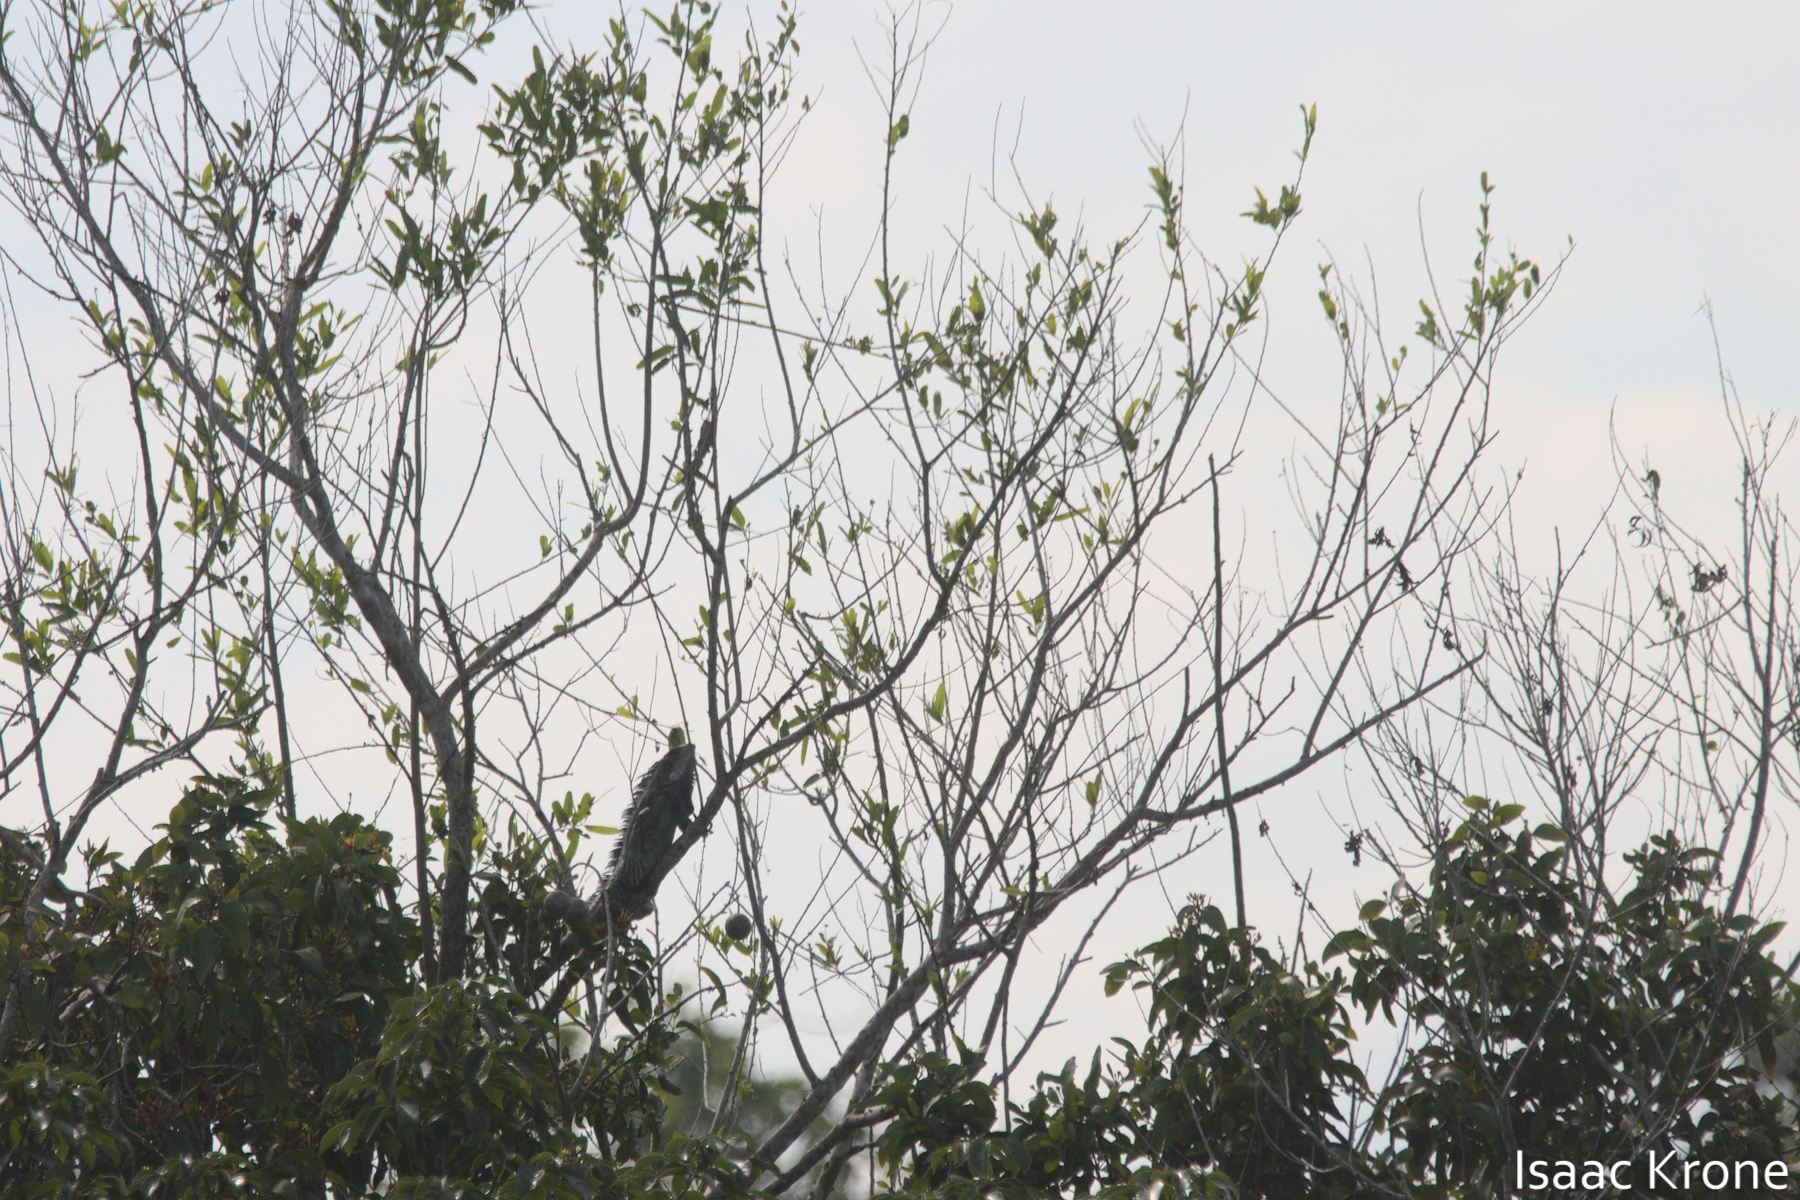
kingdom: Animalia
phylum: Chordata
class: Squamata
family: Iguanidae
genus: Iguana
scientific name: Iguana iguana
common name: Green iguana
